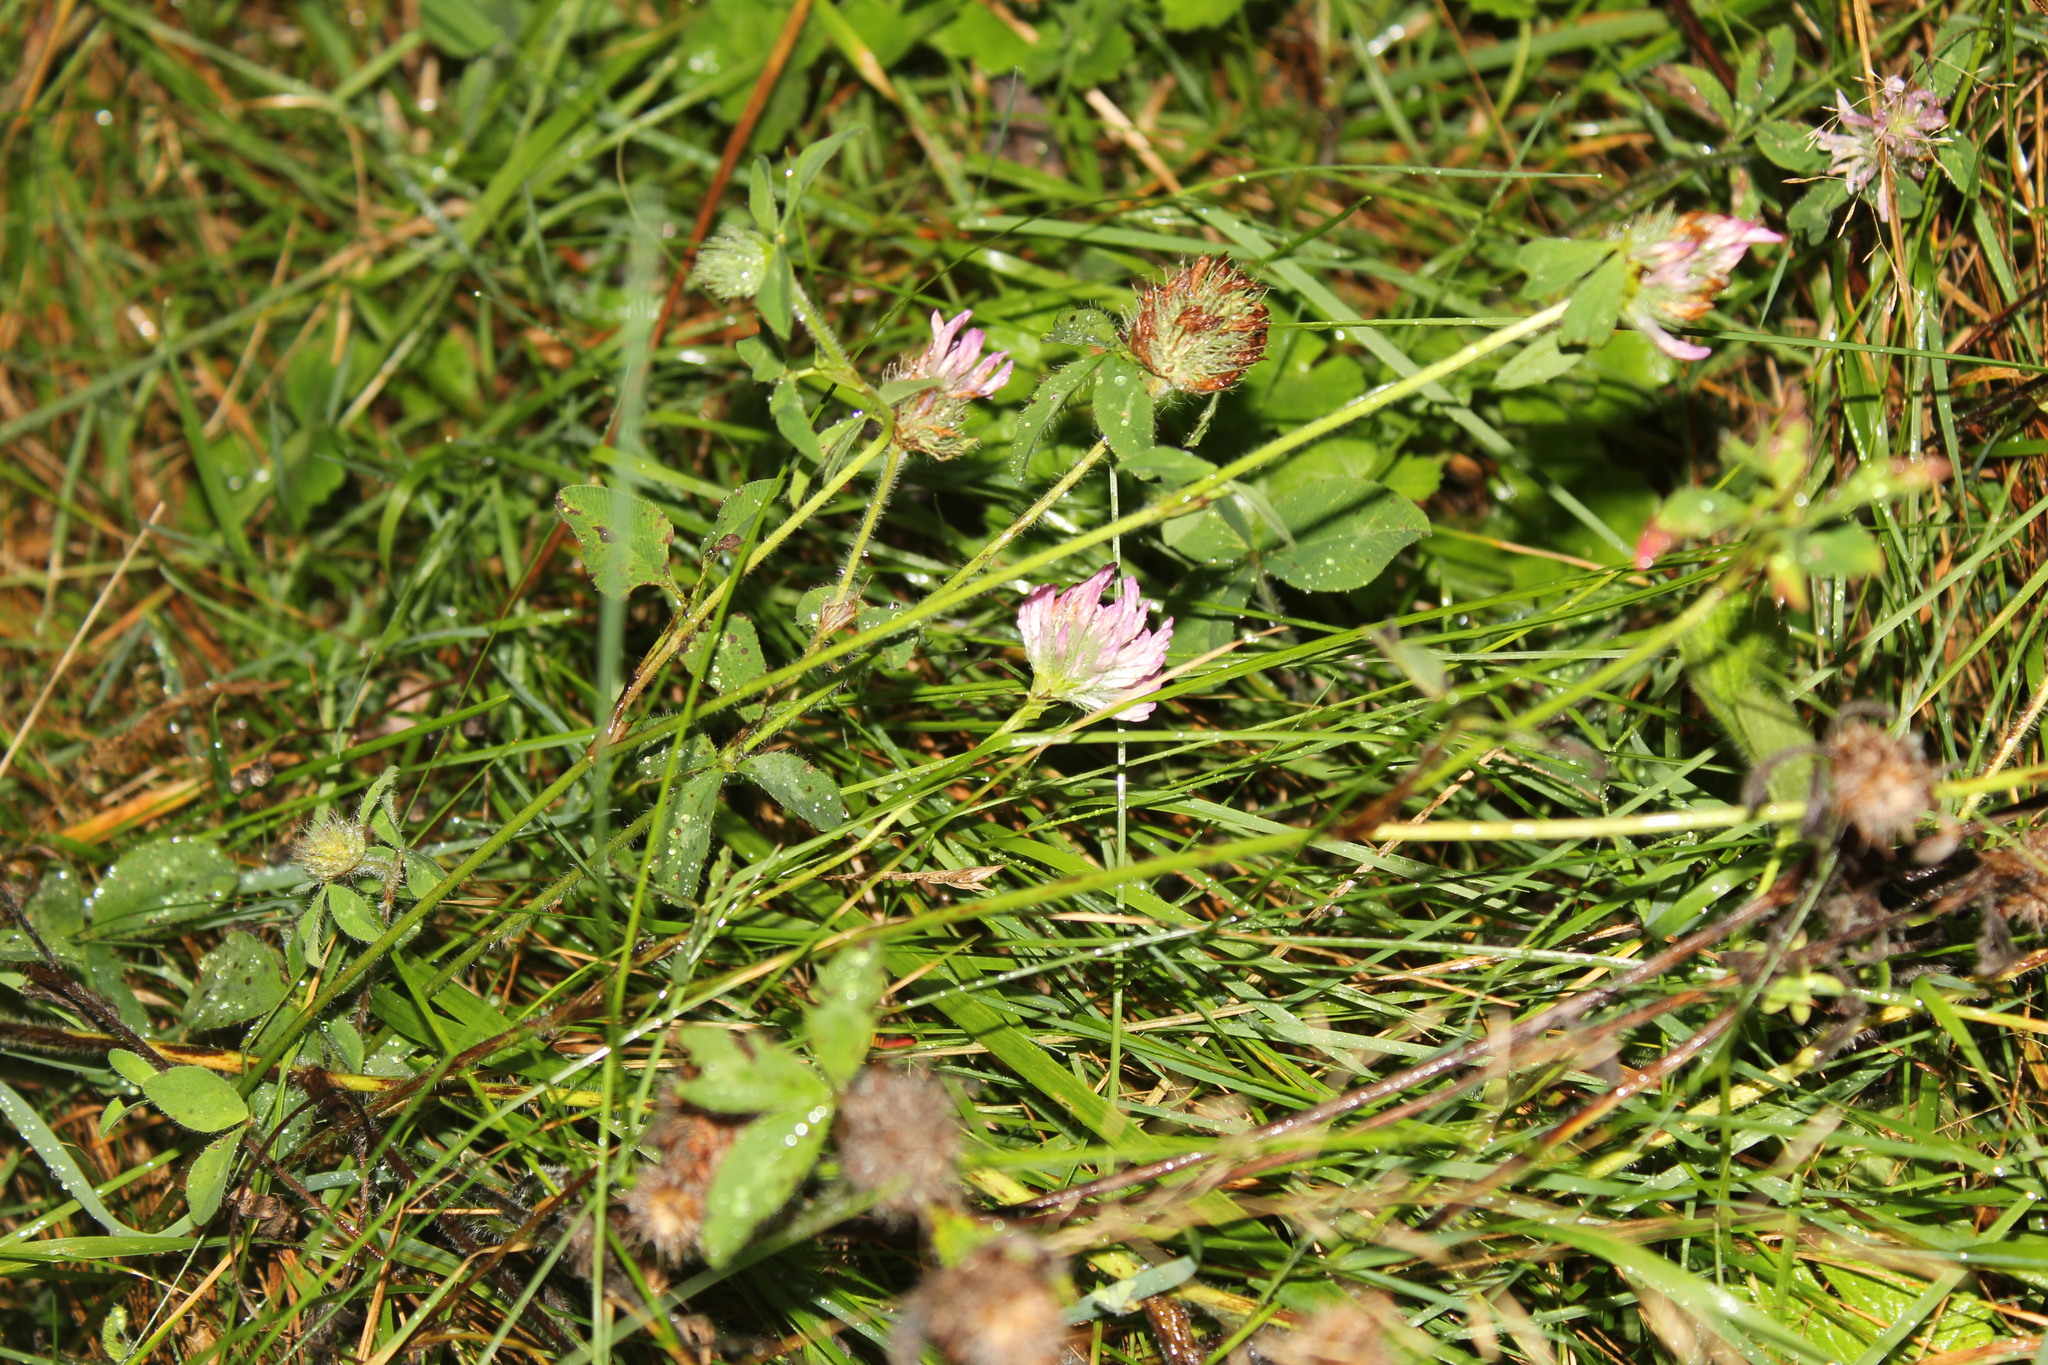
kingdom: Plantae
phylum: Tracheophyta
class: Magnoliopsida
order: Fabales
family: Fabaceae
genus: Trifolium
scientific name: Trifolium pratense
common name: Red clover
